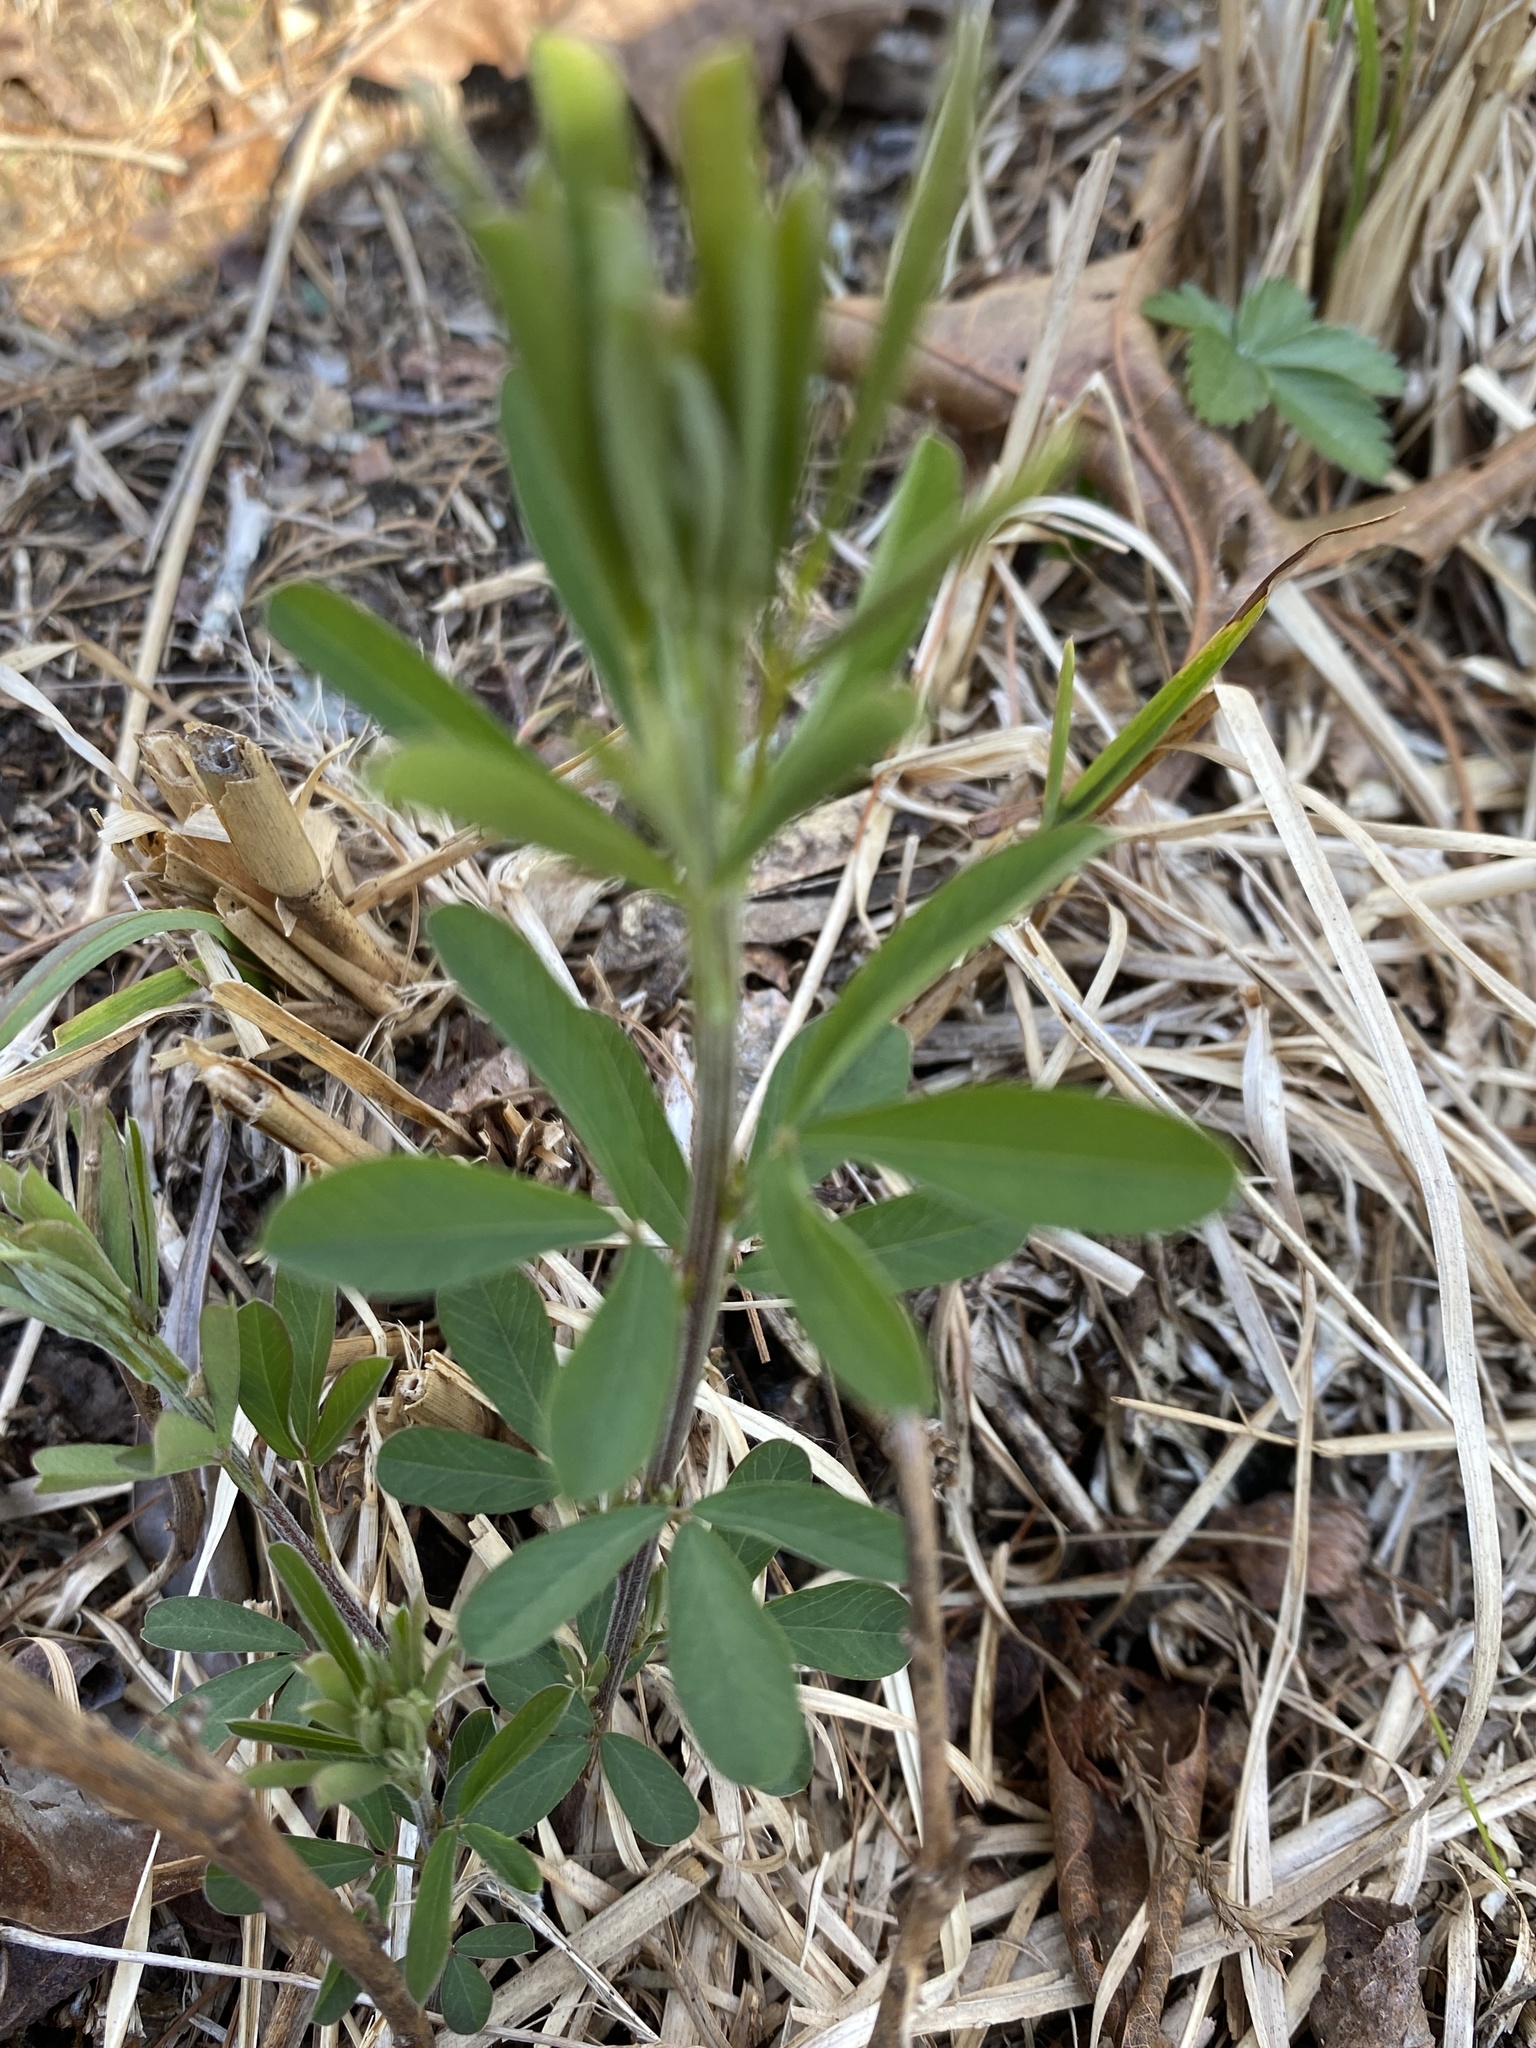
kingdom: Plantae
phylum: Tracheophyta
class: Magnoliopsida
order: Fabales
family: Fabaceae
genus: Lespedeza
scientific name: Lespedeza cuneata
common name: Chinese bush-clover
